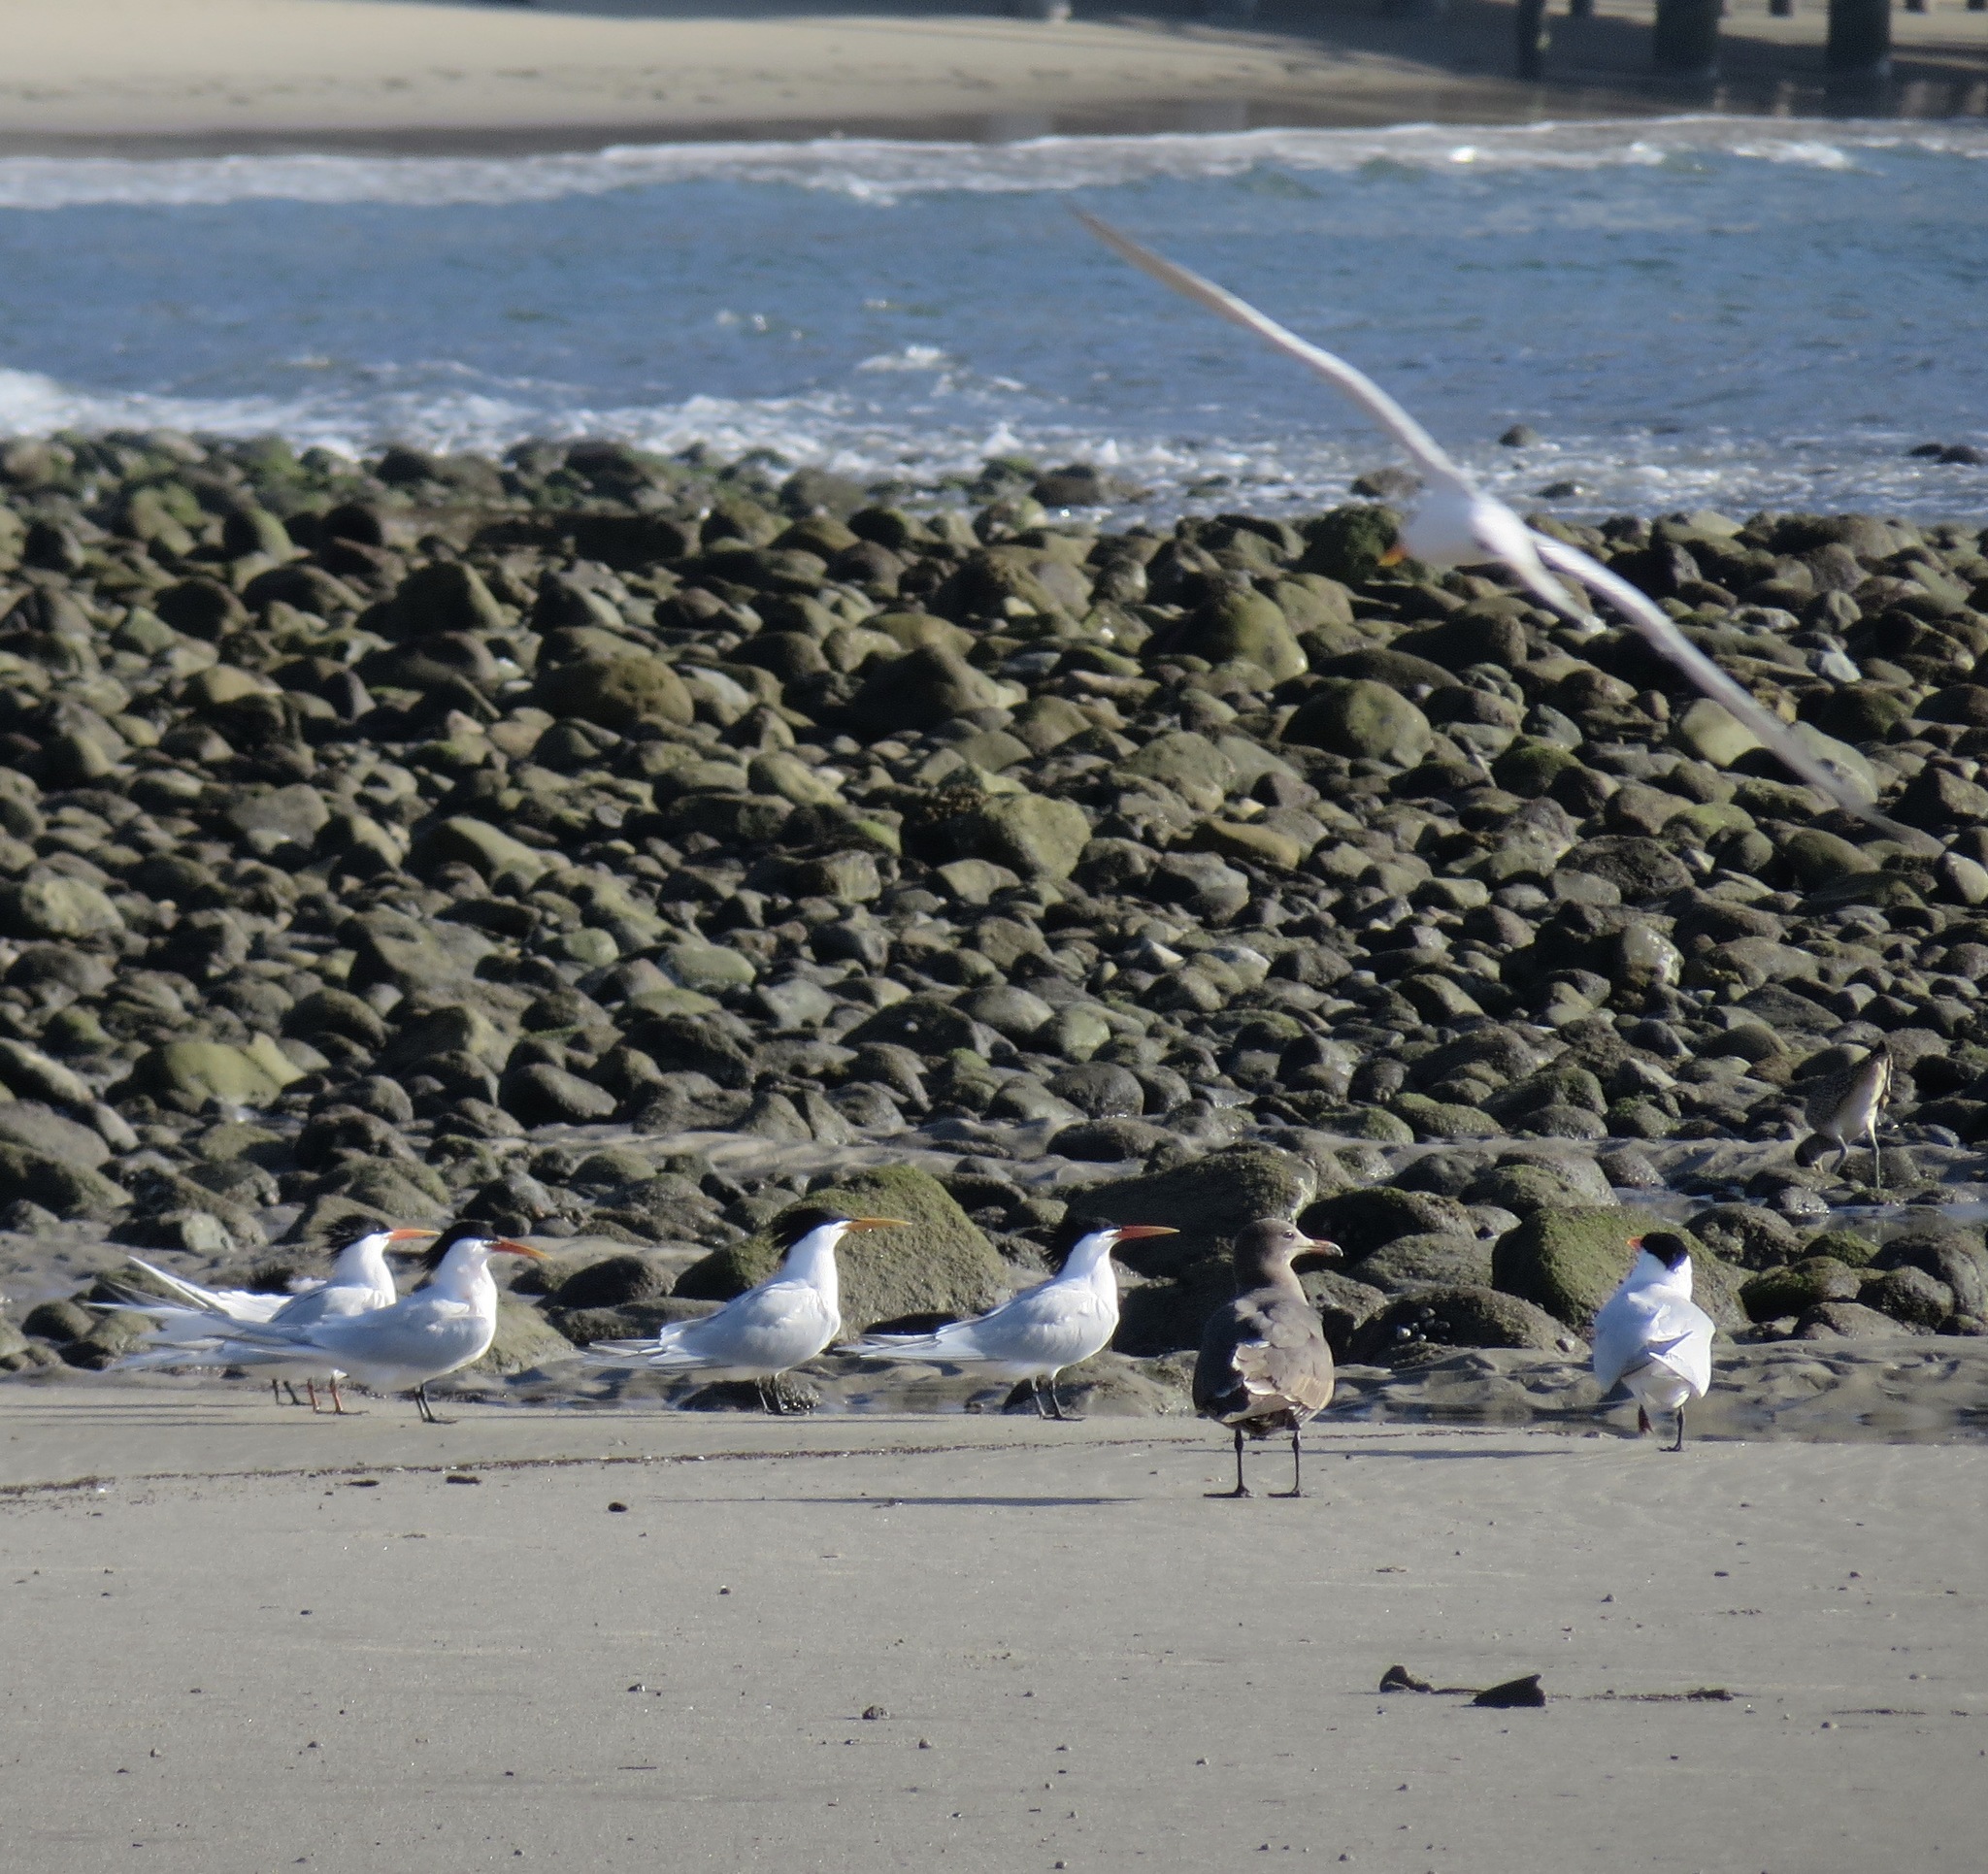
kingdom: Animalia
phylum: Chordata
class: Aves
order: Charadriiformes
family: Laridae
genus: Thalasseus
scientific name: Thalasseus maximus
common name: Royal tern
